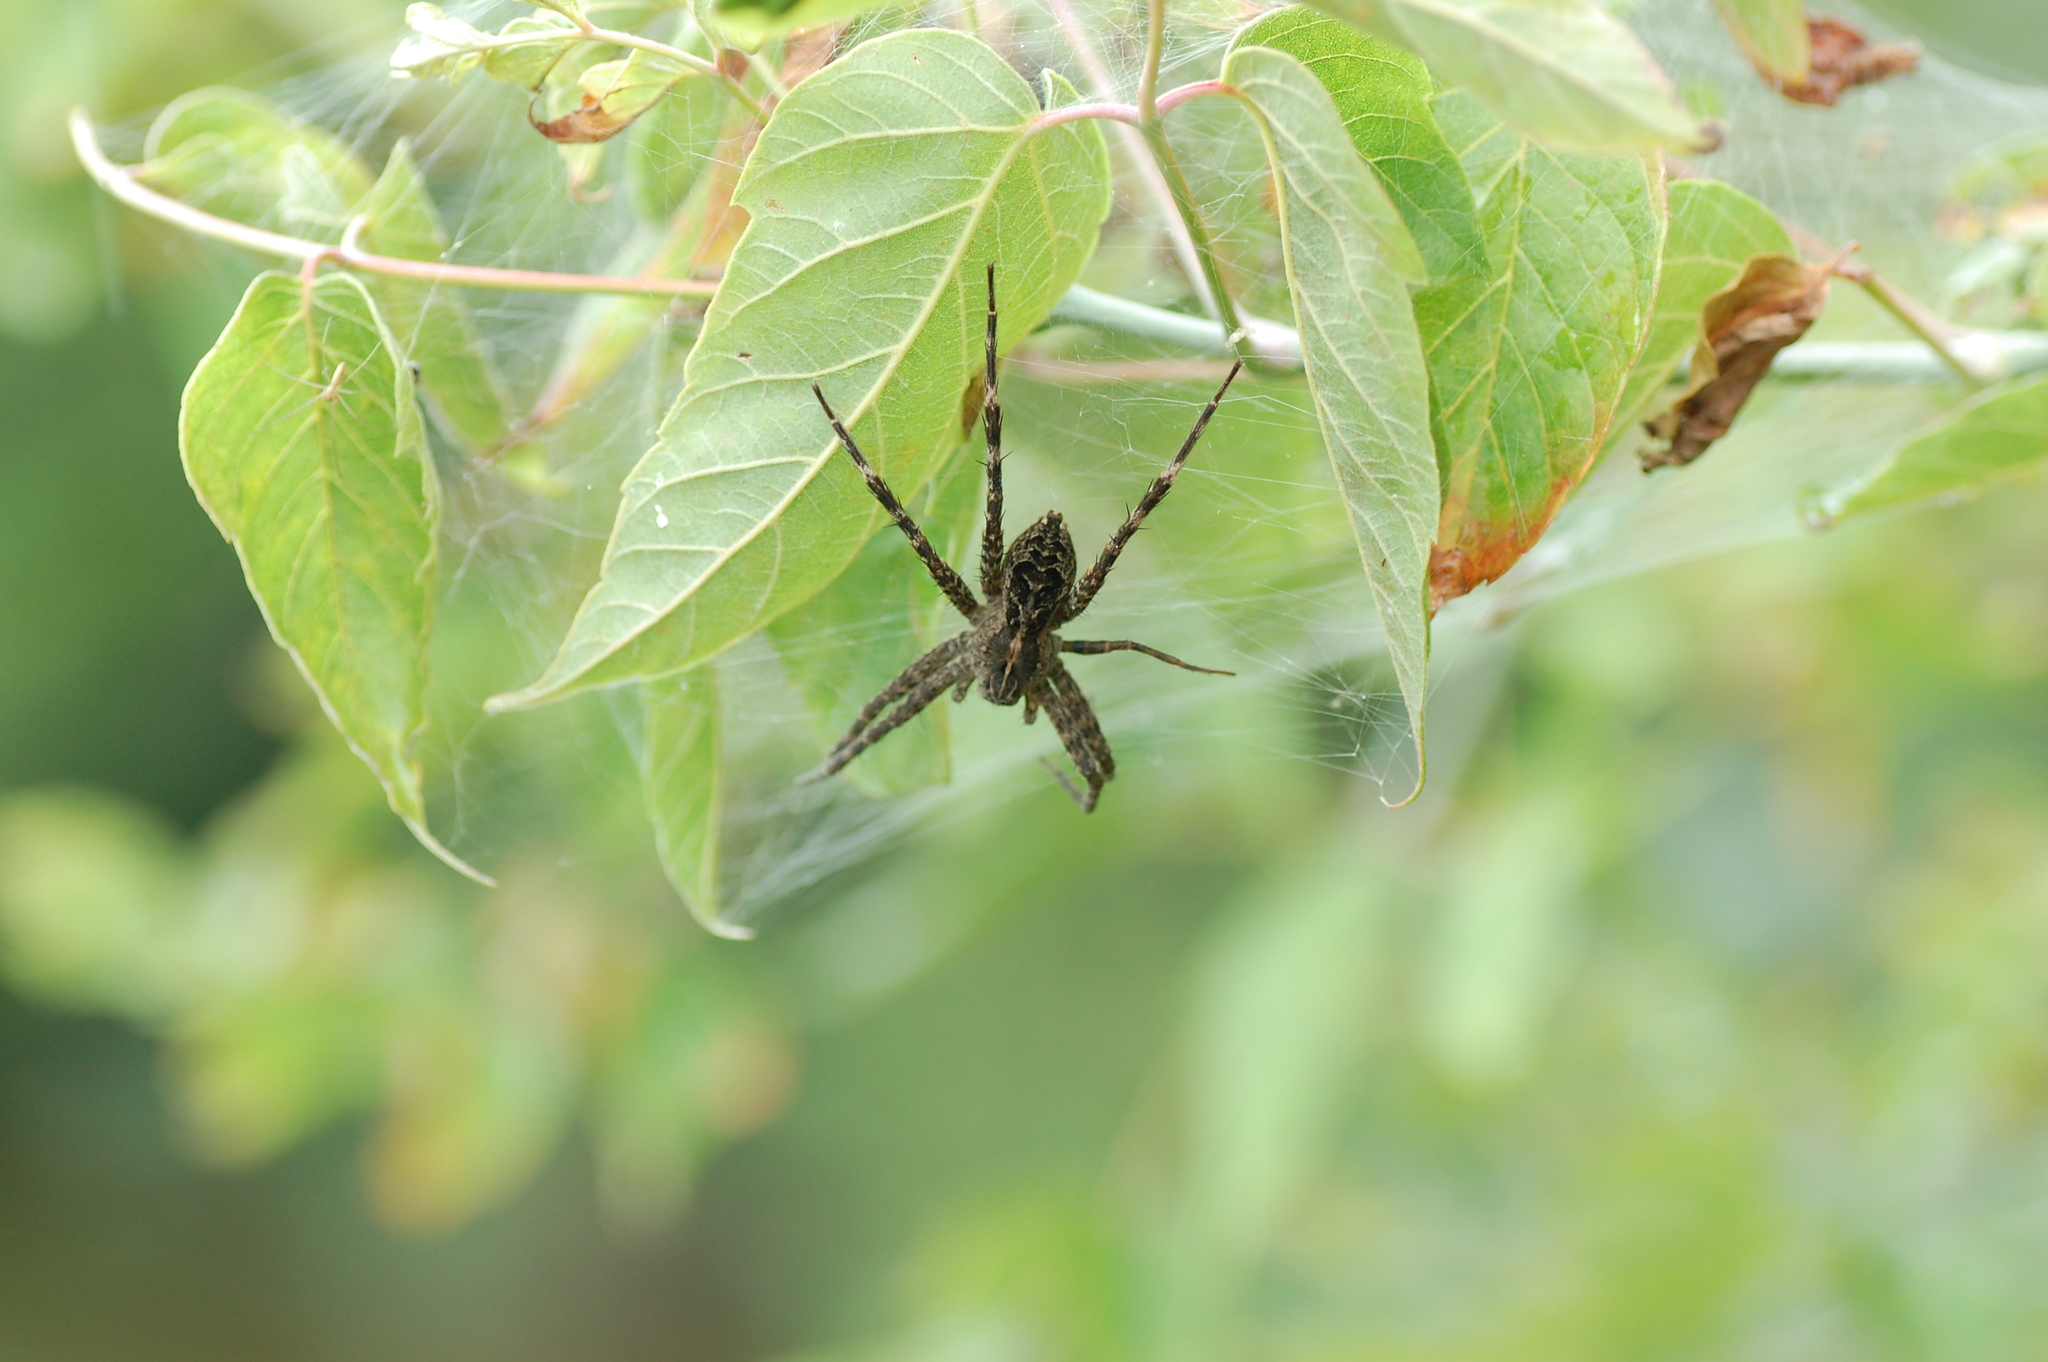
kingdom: Animalia
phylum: Arthropoda
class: Arachnida
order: Araneae
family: Pisauridae
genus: Dolomedes
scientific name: Dolomedes scriptus
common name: Striped fishing spider
